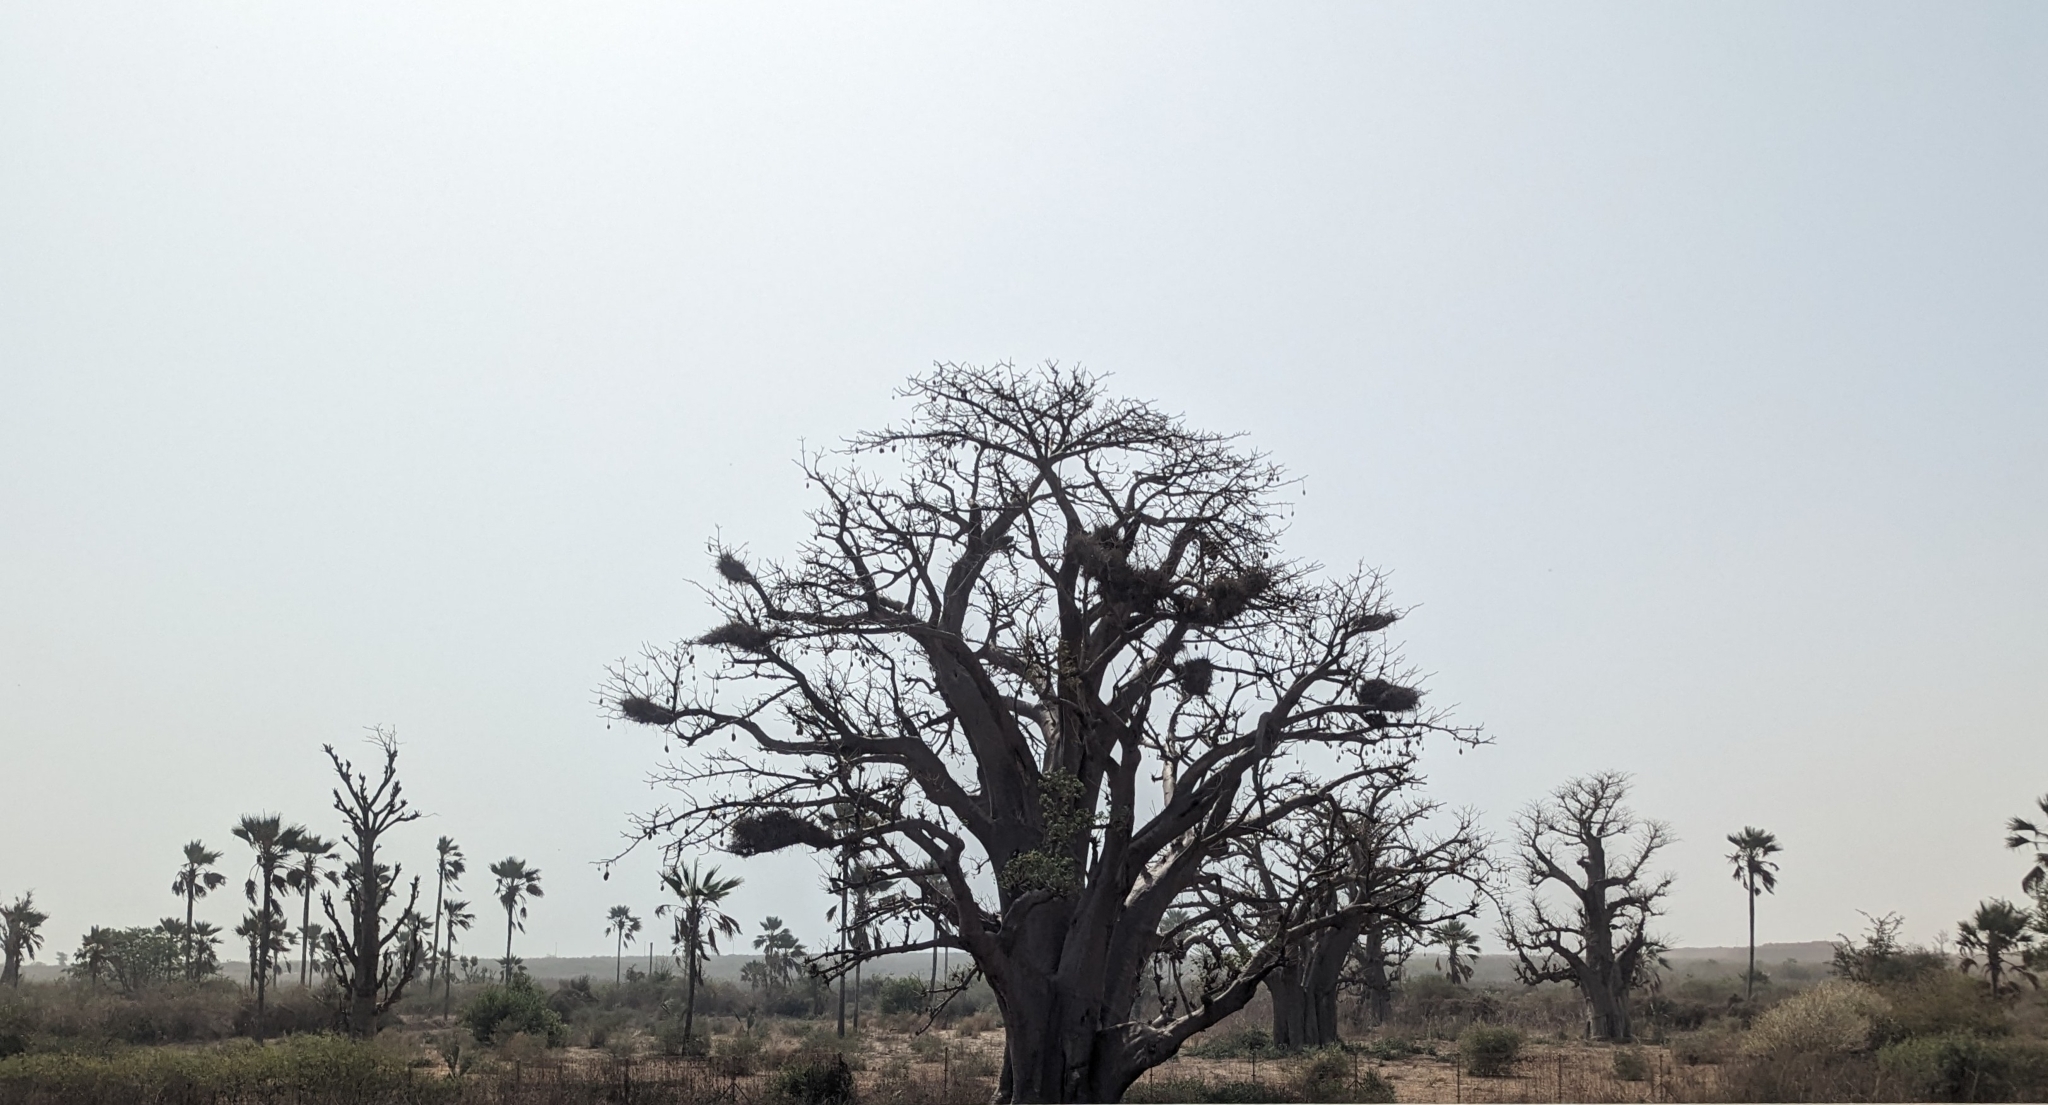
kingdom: Plantae
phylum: Tracheophyta
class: Magnoliopsida
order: Malvales
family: Malvaceae
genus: Adansonia
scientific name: Adansonia digitata
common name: Dead-rat-tree
